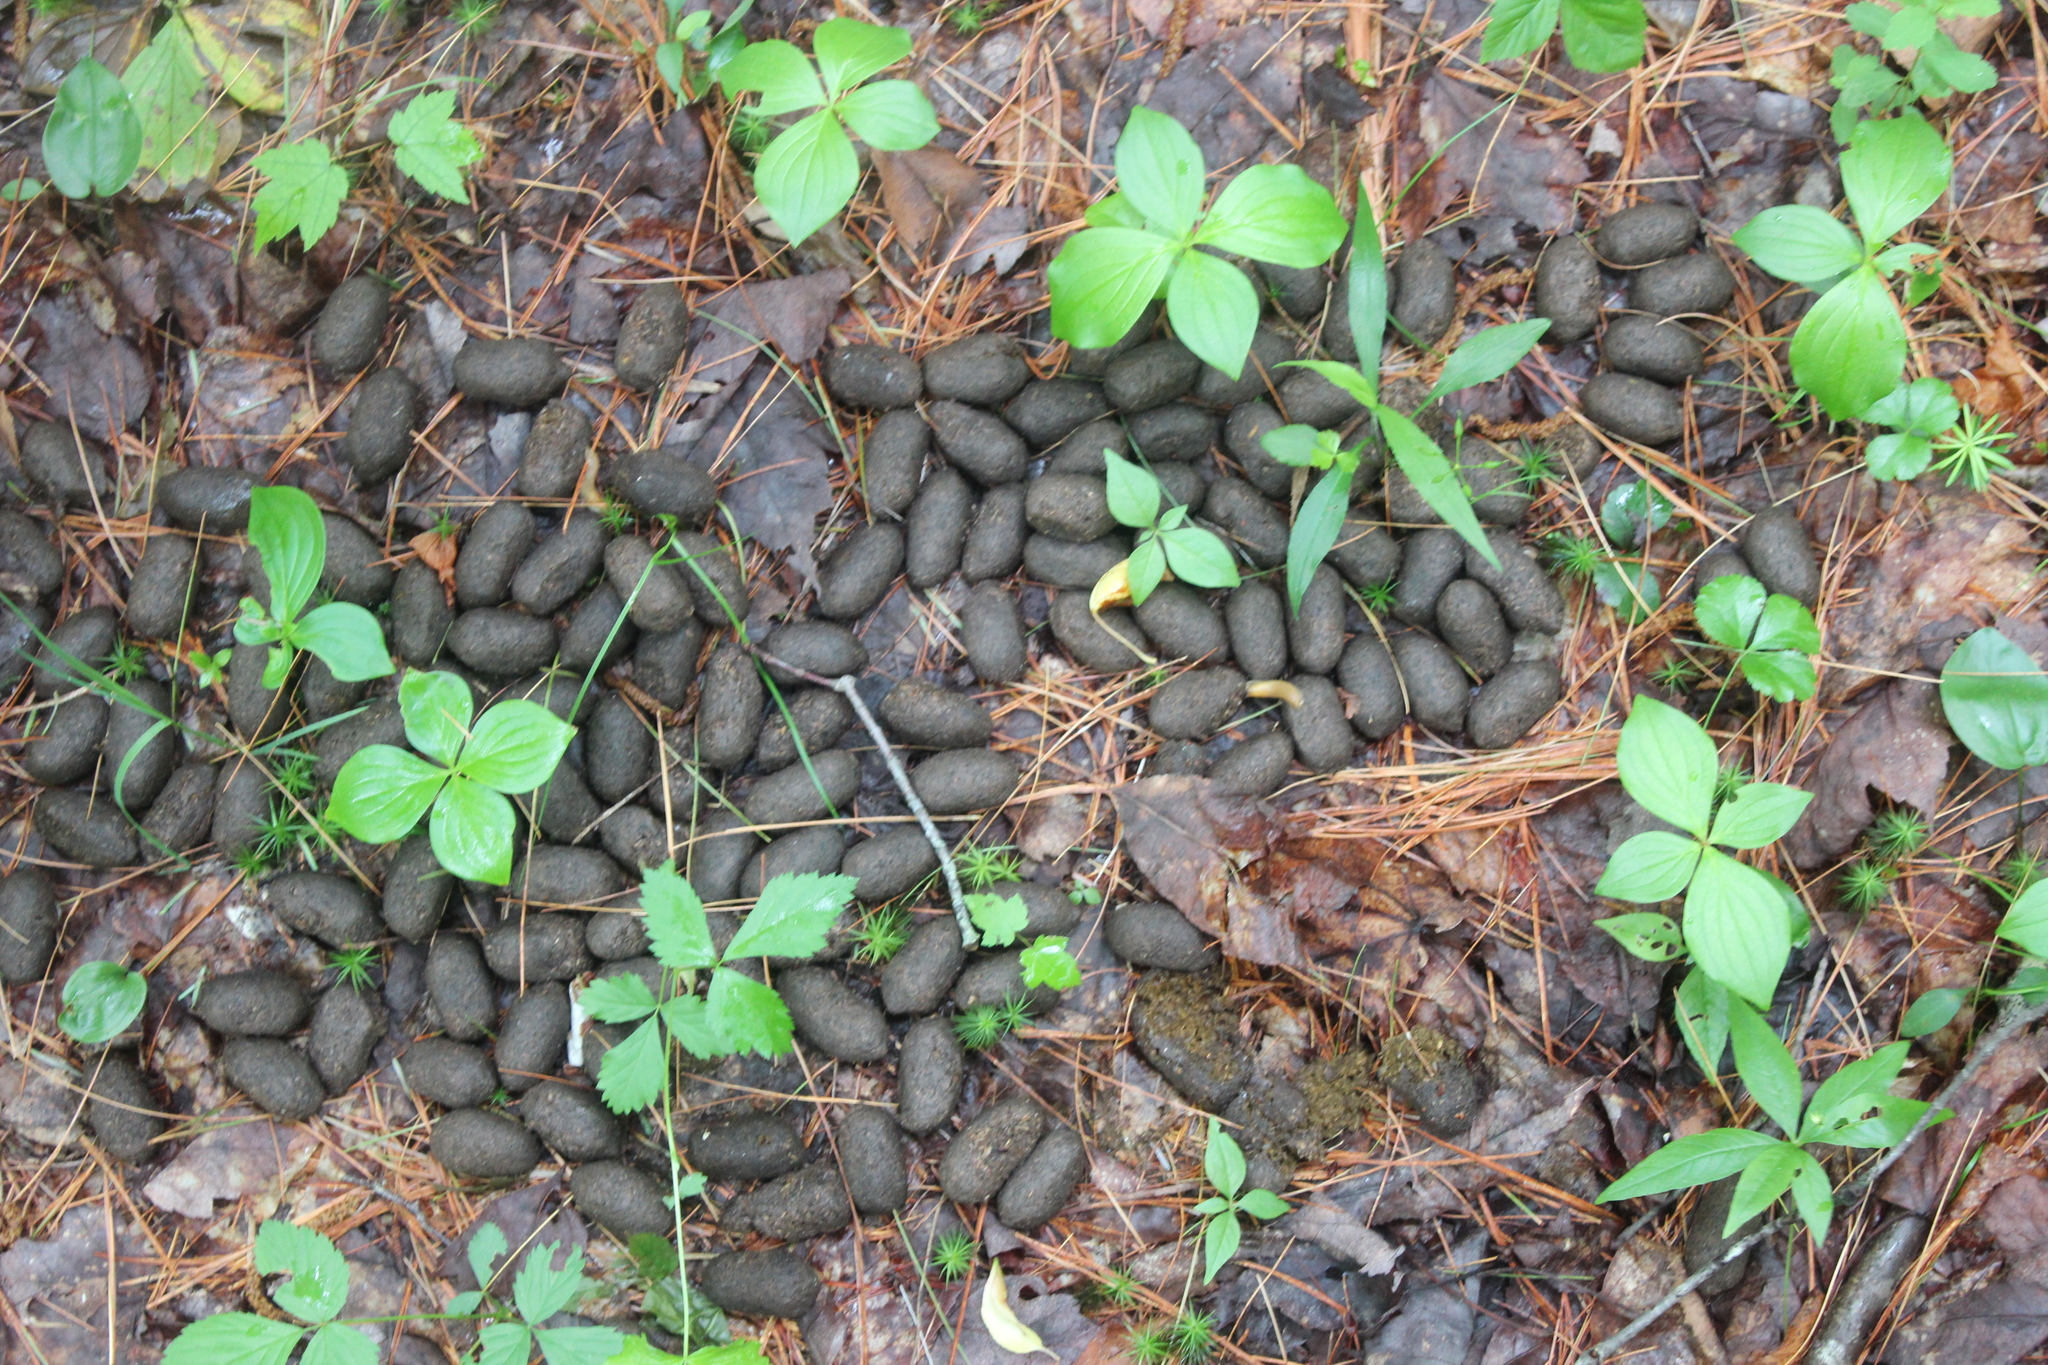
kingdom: Animalia
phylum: Chordata
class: Mammalia
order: Artiodactyla
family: Cervidae
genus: Alces
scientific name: Alces alces
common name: Moose
